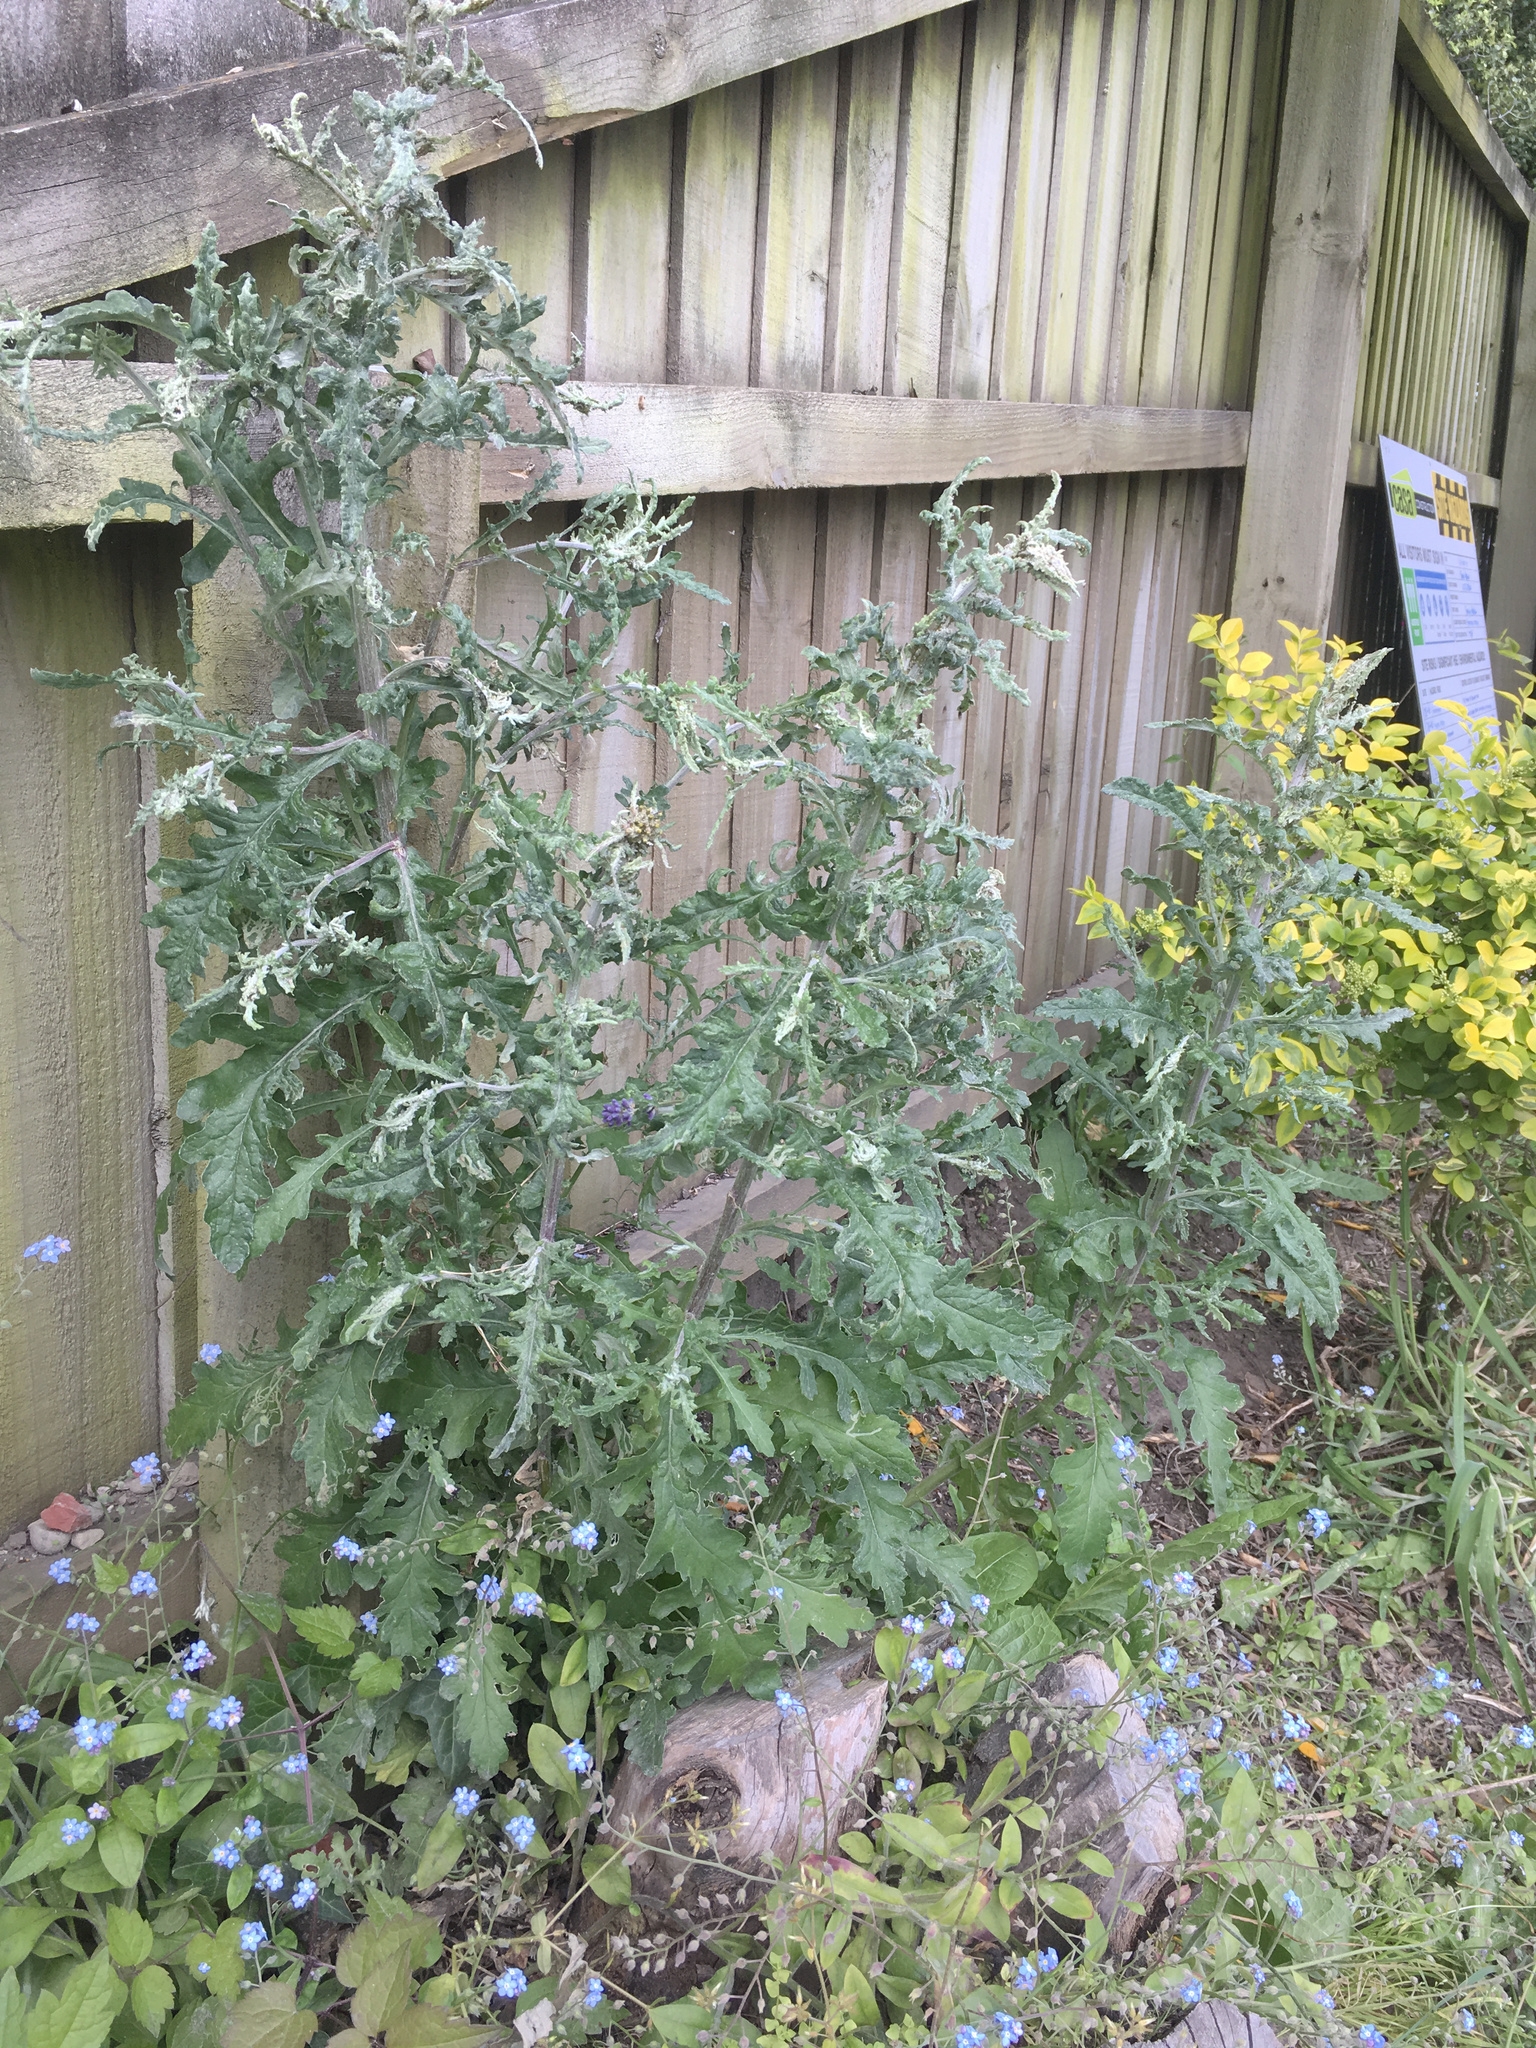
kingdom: Plantae
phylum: Tracheophyta
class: Magnoliopsida
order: Asterales
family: Asteraceae
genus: Senecio
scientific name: Senecio glomeratus
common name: Cutleaf burnweed
